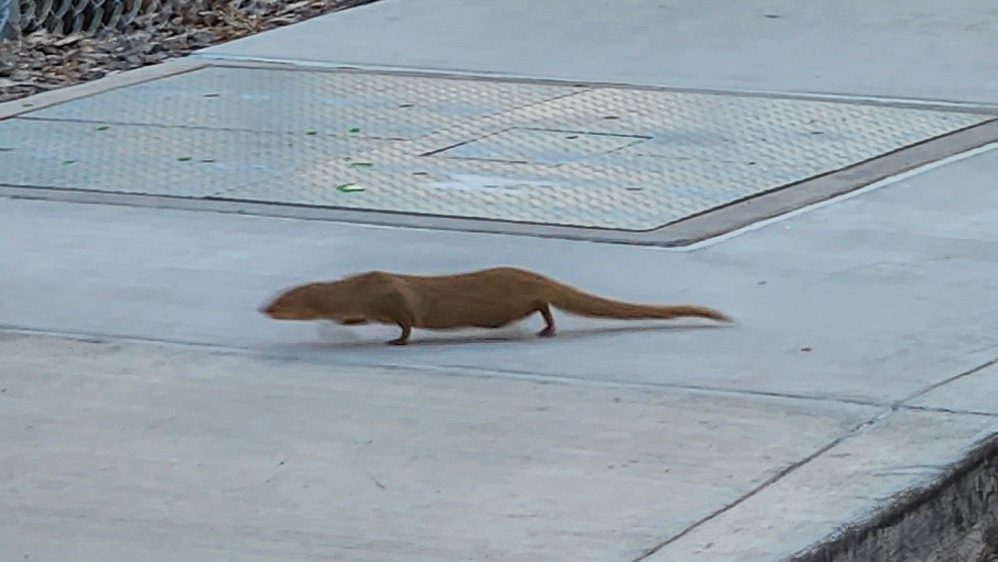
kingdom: Animalia
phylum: Chordata
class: Mammalia
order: Carnivora
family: Herpestidae
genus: Herpestes
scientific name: Herpestes javanicus
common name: Small asian mongoose
